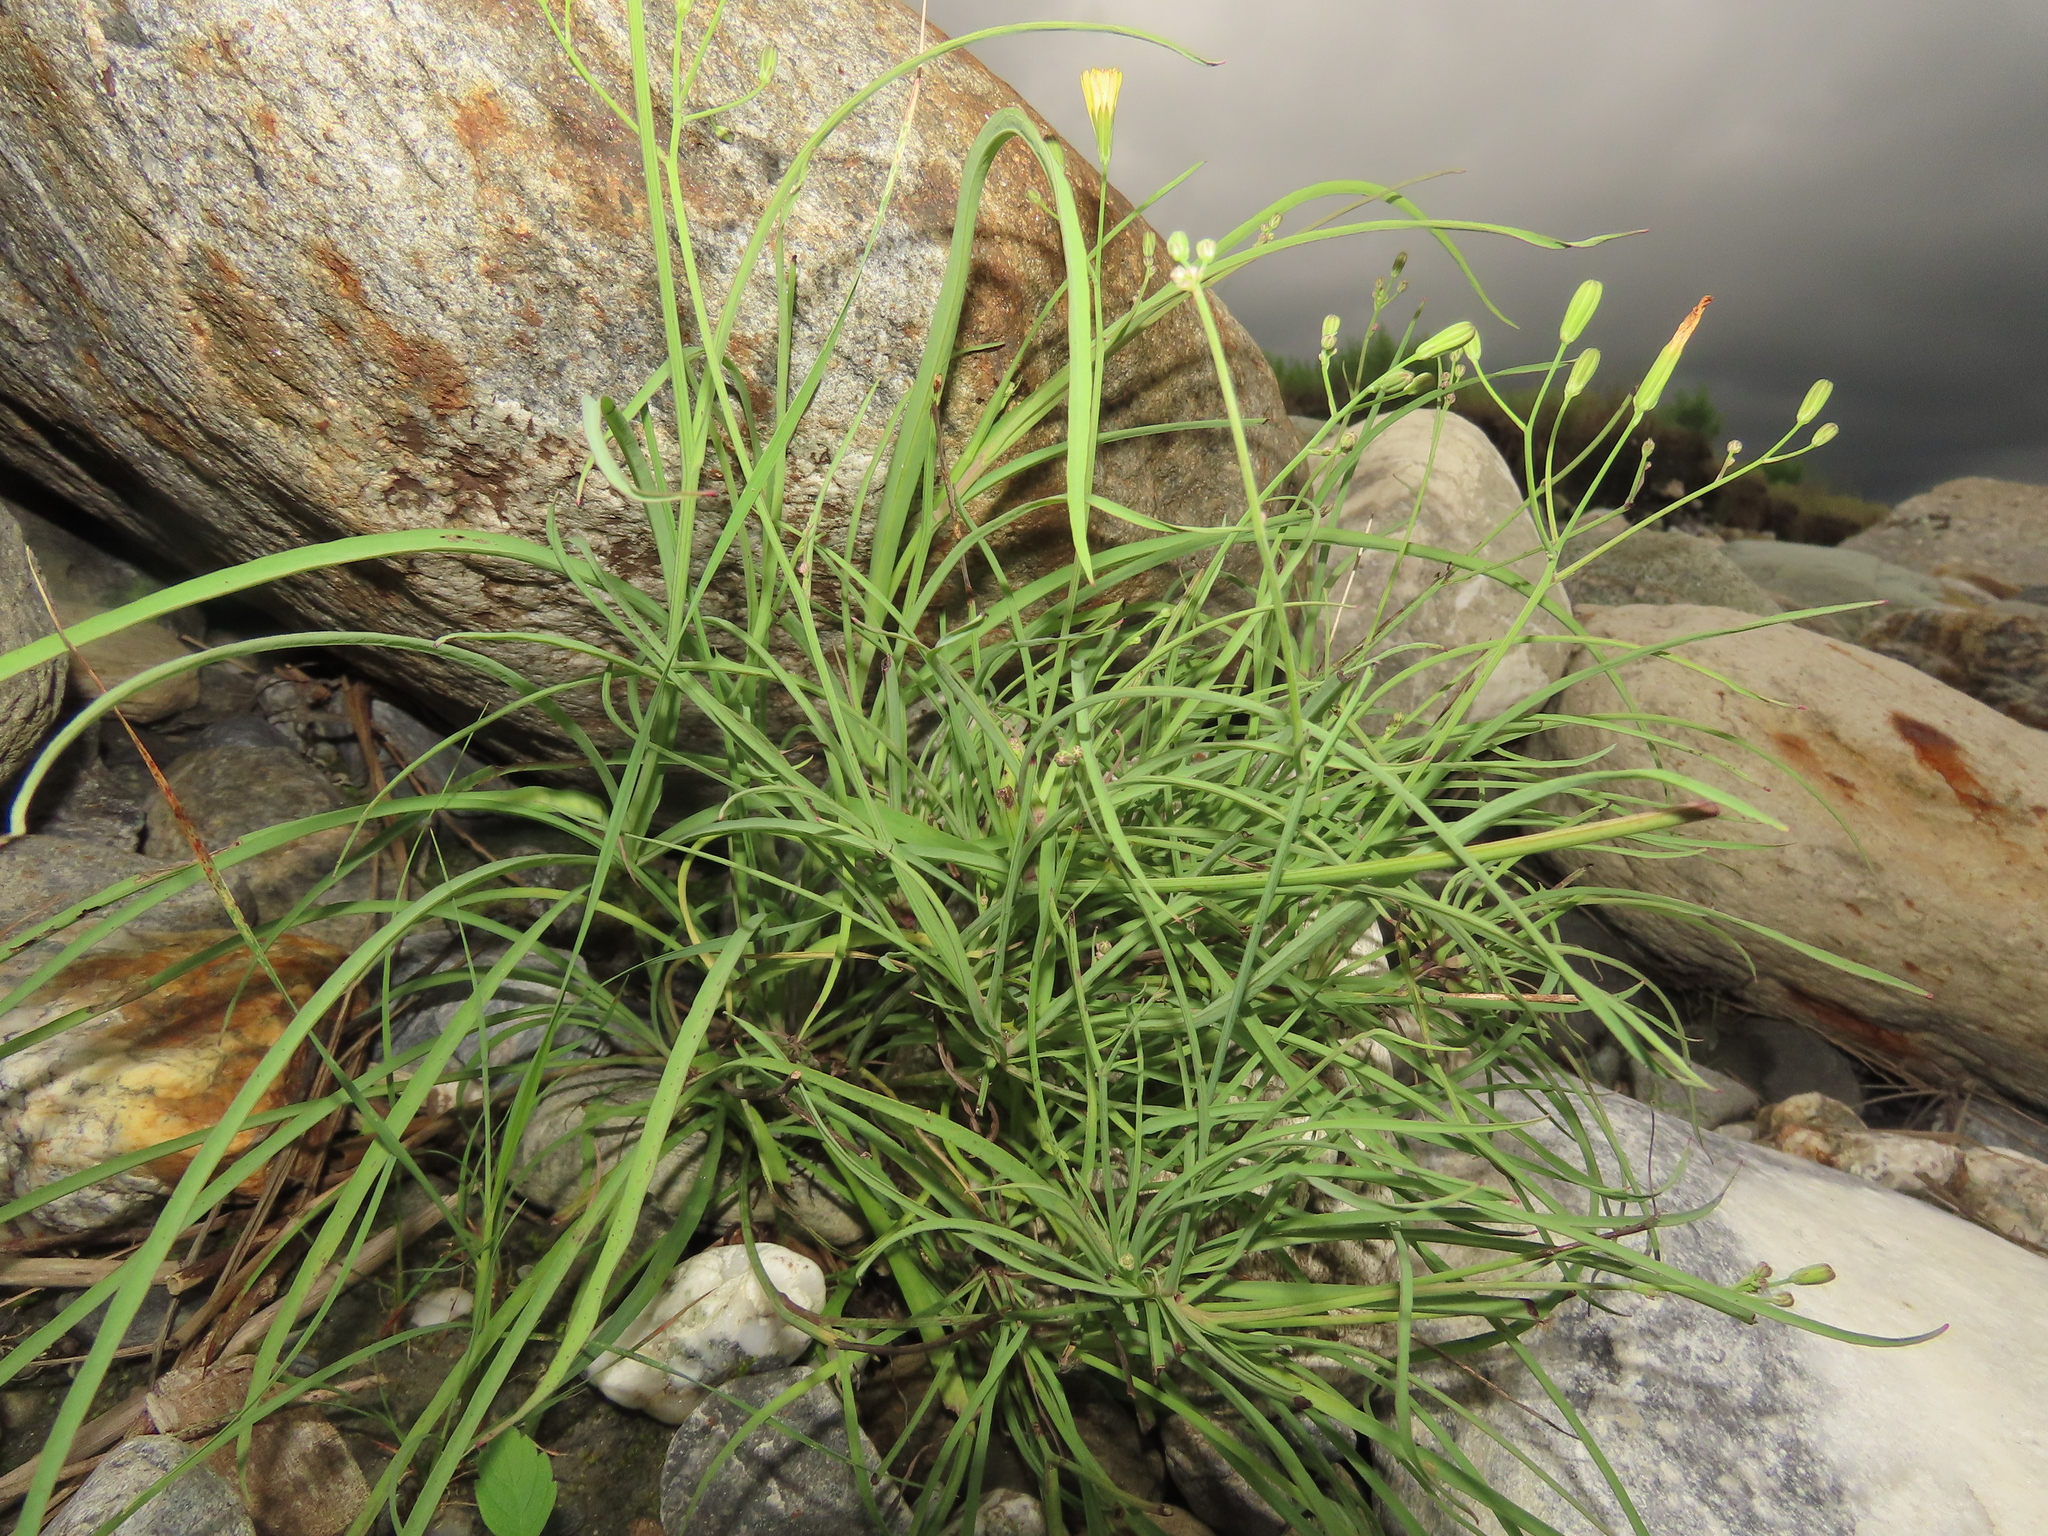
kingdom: Plantae
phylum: Tracheophyta
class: Magnoliopsida
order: Asterales
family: Asteraceae
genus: Ixeris
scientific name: Ixeris tamagawaensis
